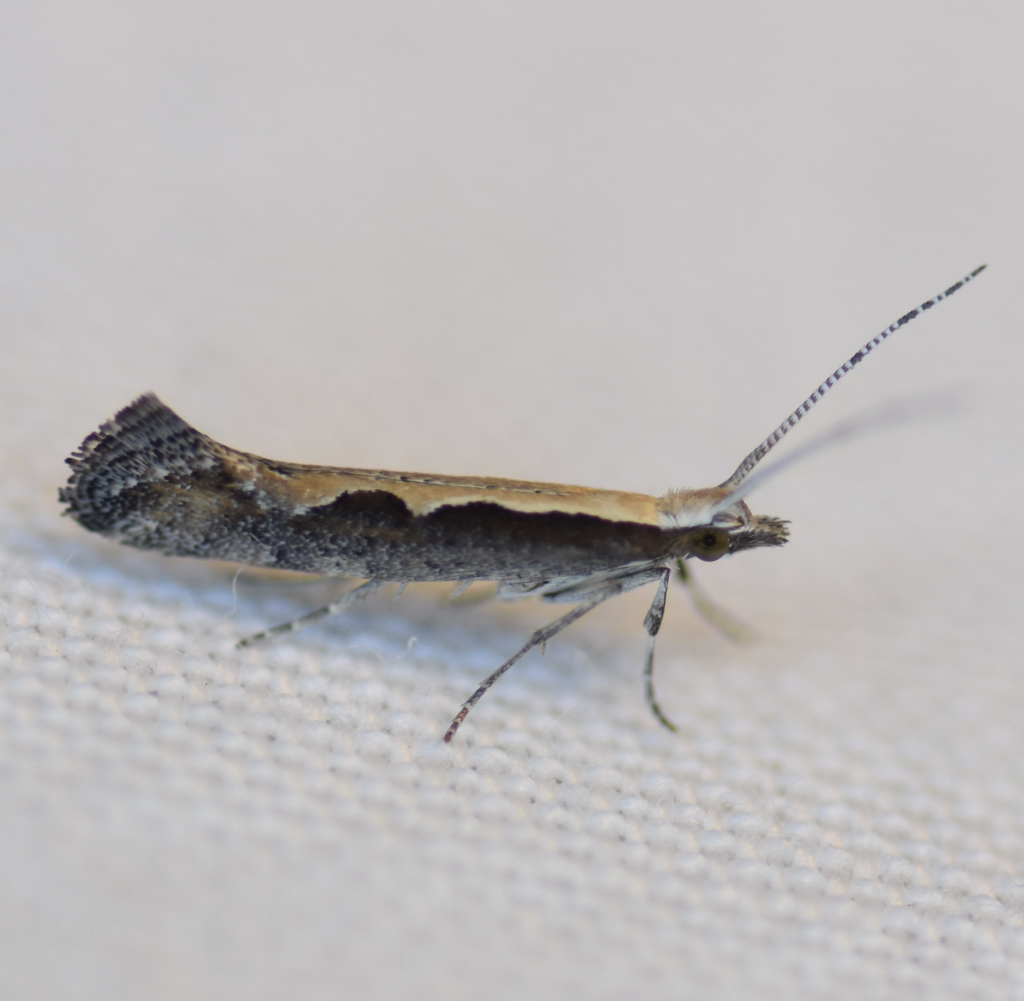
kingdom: Animalia
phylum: Arthropoda
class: Insecta
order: Lepidoptera
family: Plutellidae
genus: Plutella
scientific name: Plutella xylostella
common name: Diamond-back moth
